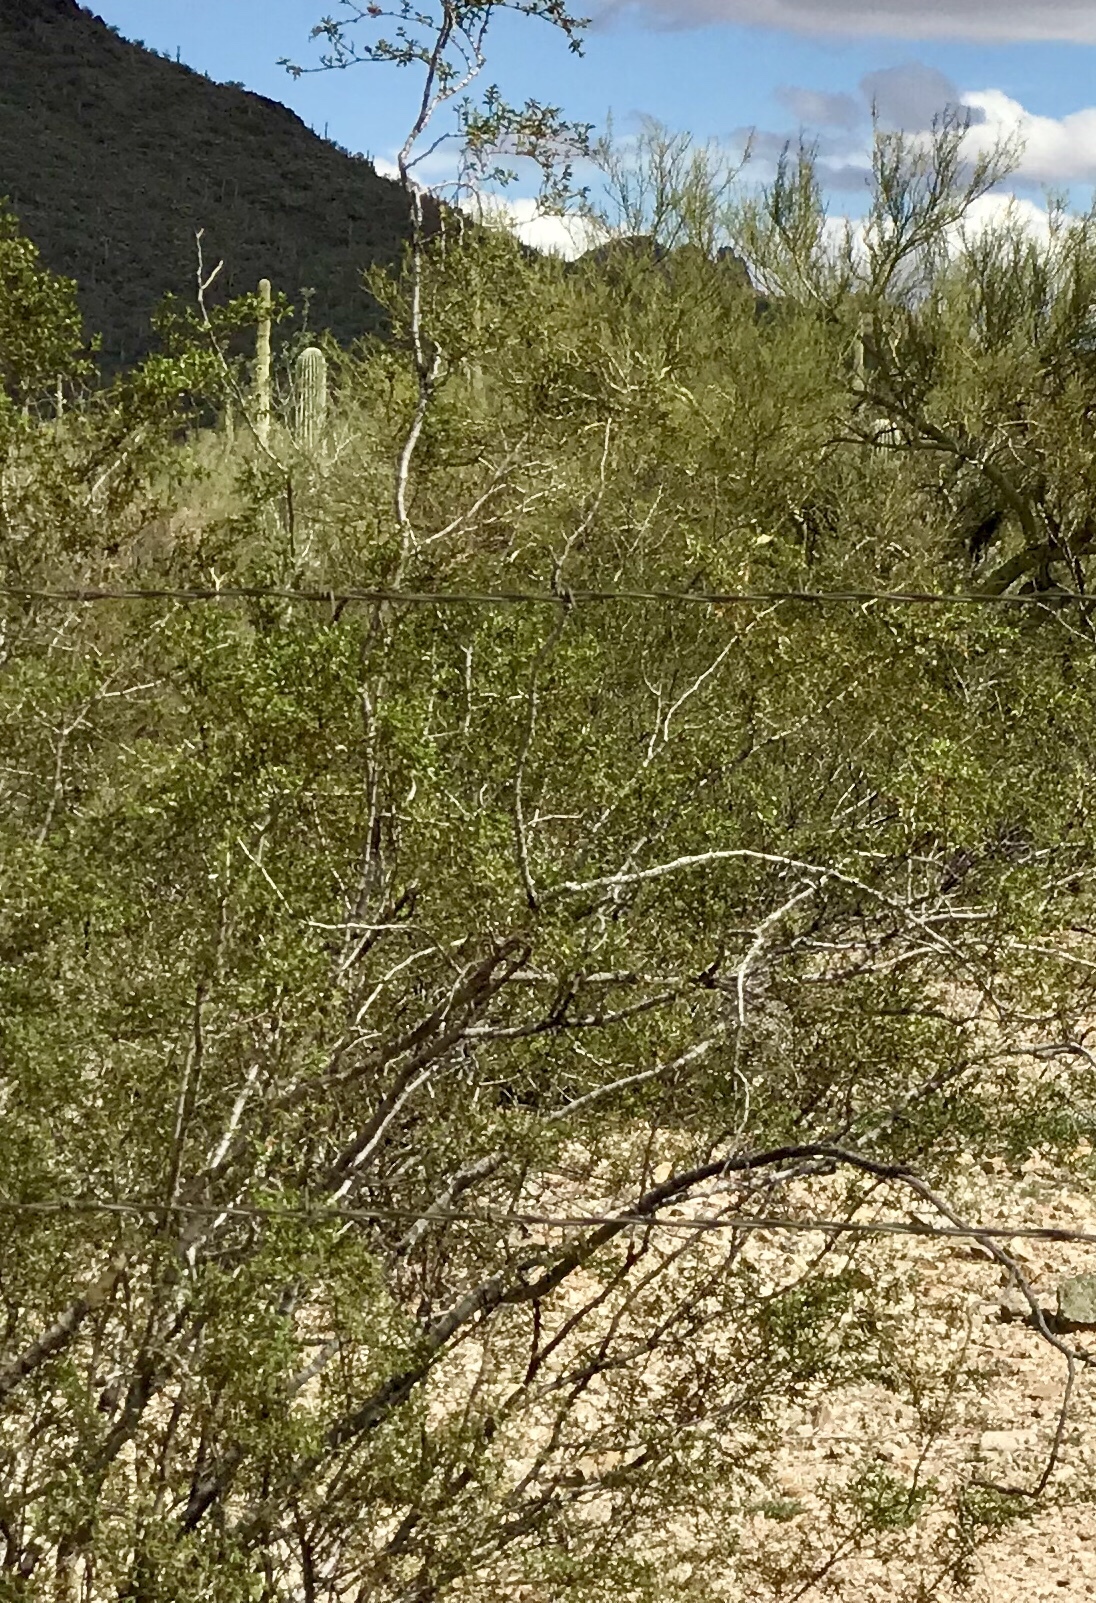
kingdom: Plantae
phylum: Tracheophyta
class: Magnoliopsida
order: Zygophyllales
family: Zygophyllaceae
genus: Larrea
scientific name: Larrea tridentata
